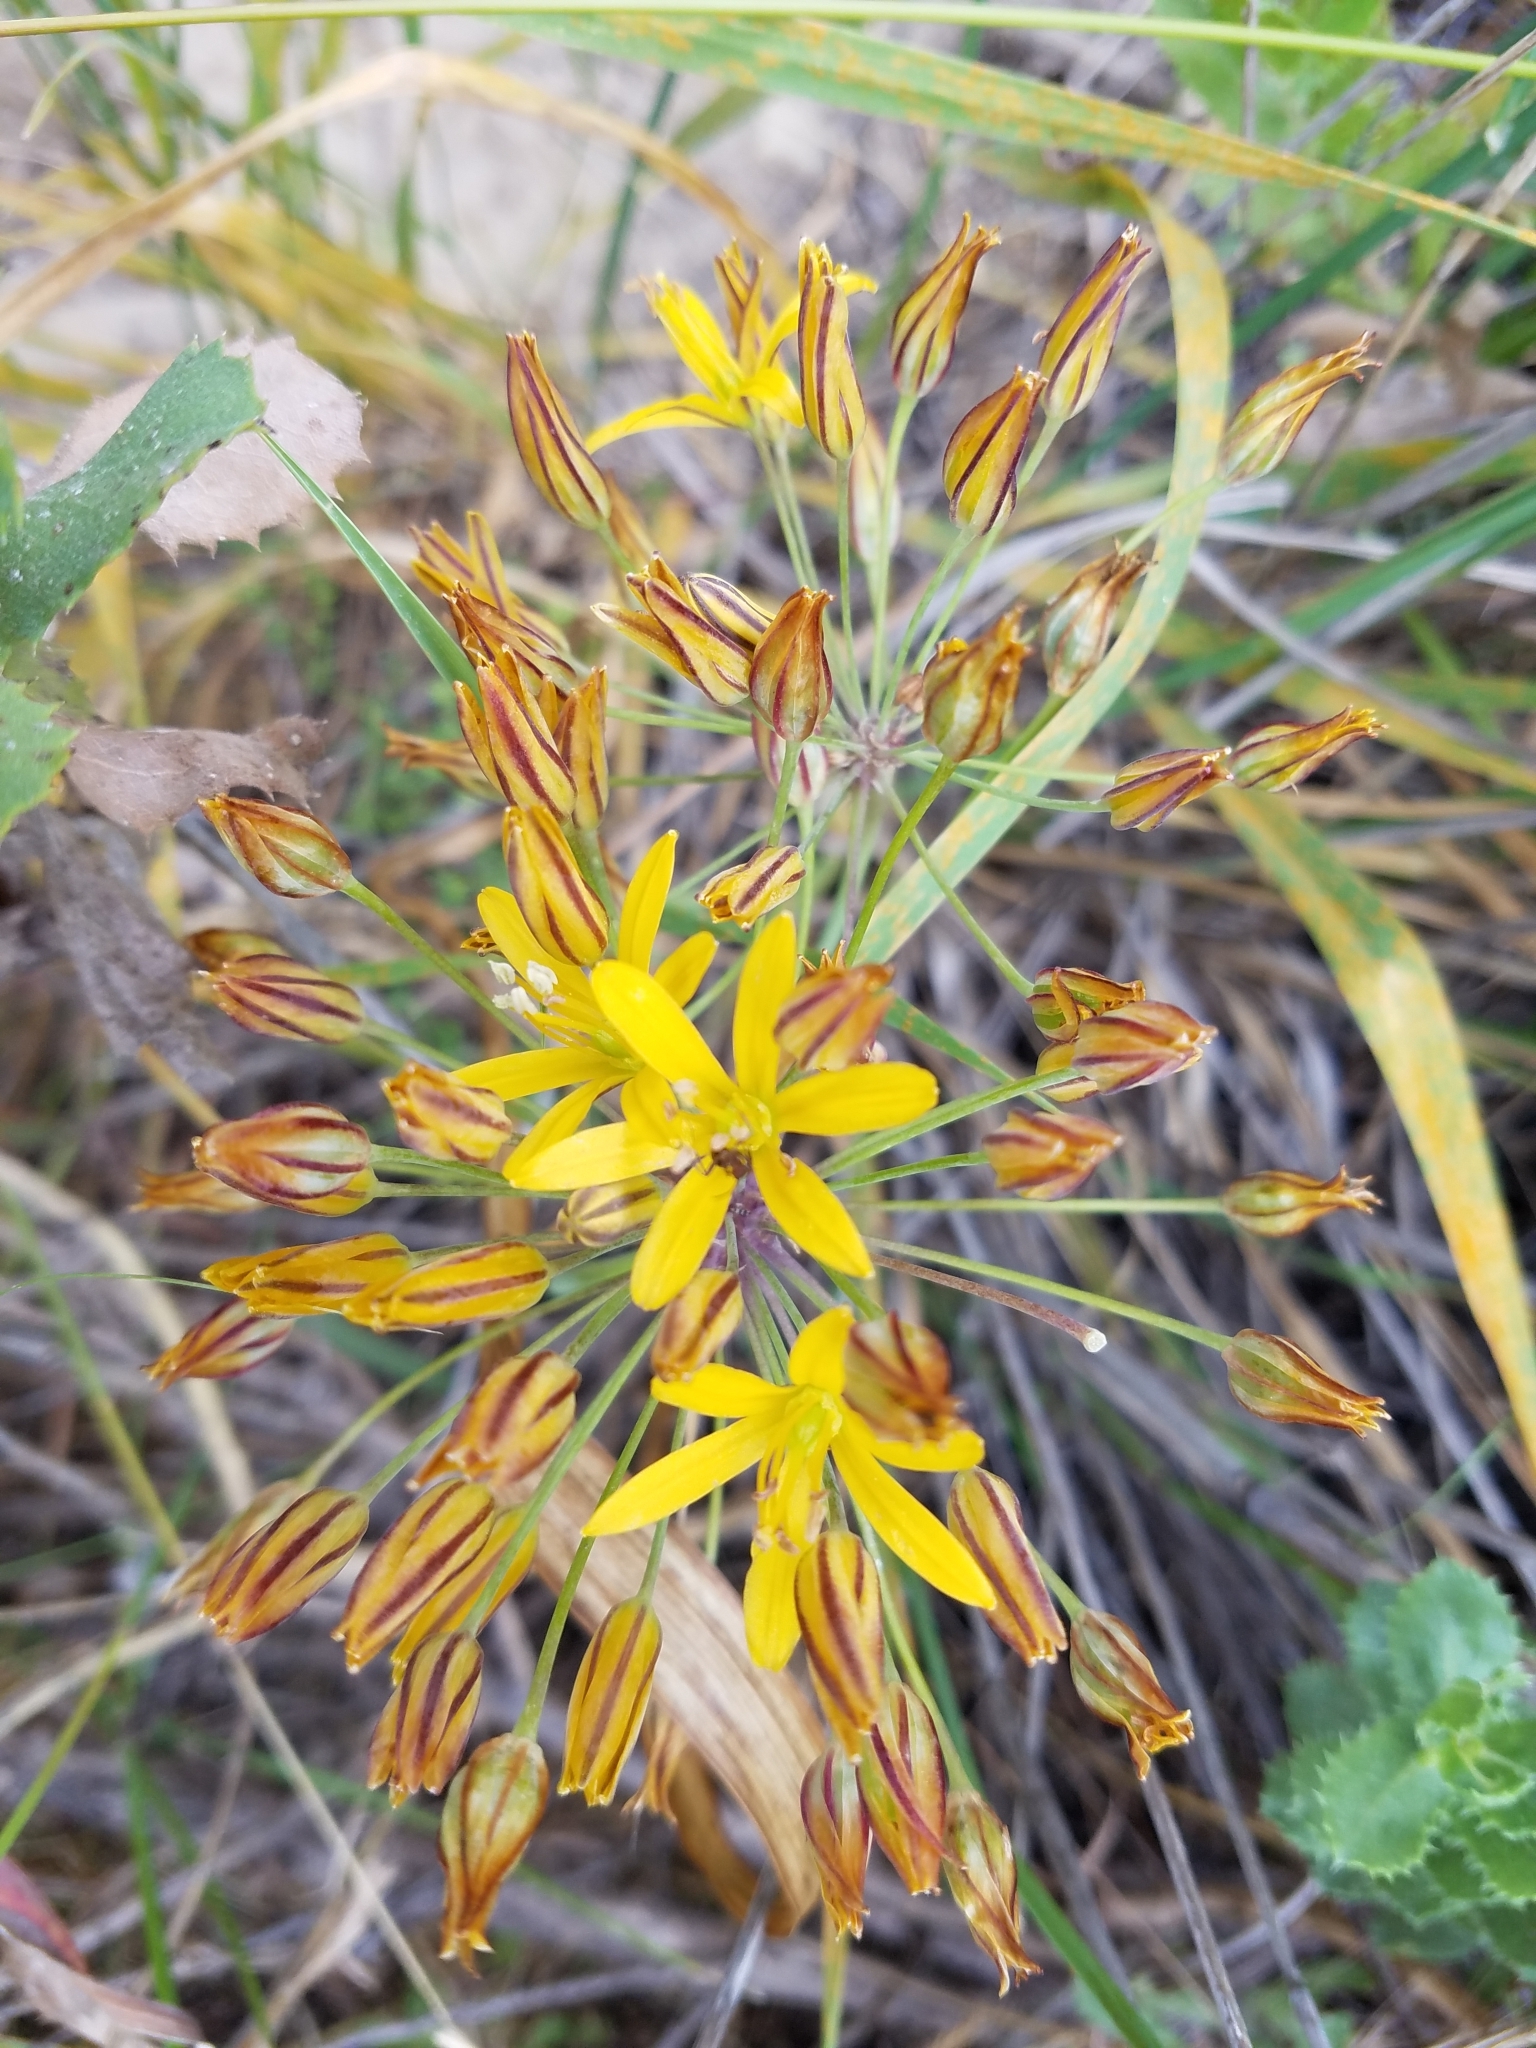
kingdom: Plantae
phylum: Tracheophyta
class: Liliopsida
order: Asparagales
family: Asparagaceae
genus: Bloomeria
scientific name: Bloomeria crocea
